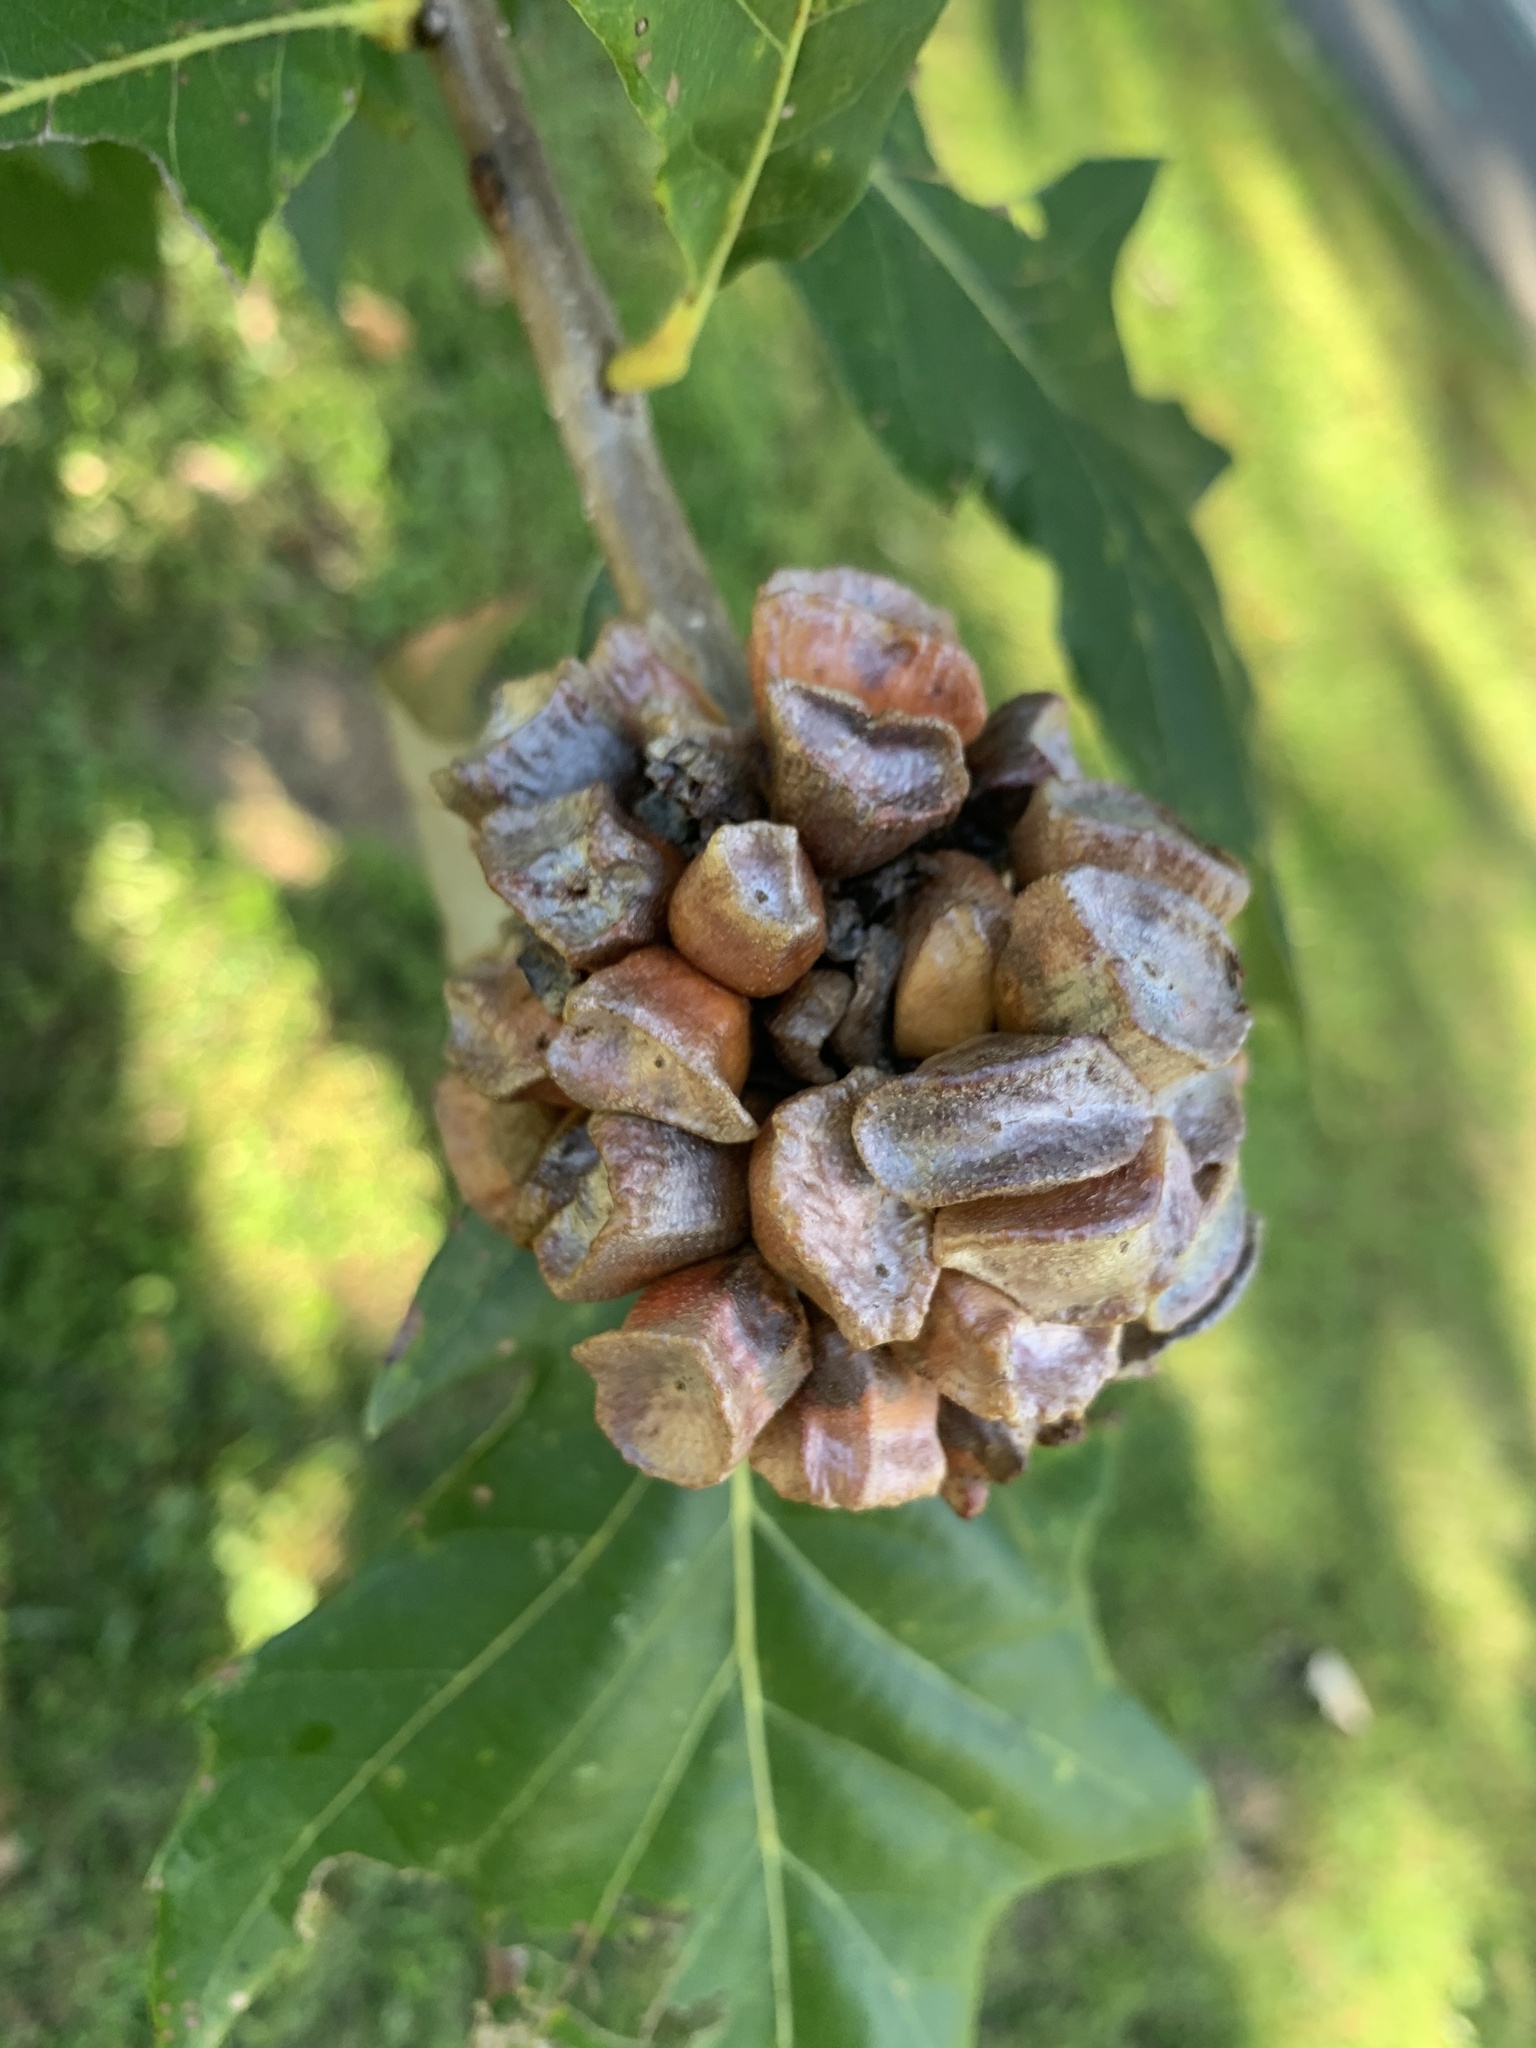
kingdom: Animalia
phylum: Arthropoda
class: Insecta
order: Hymenoptera
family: Cynipidae
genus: Andricus
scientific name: Andricus
